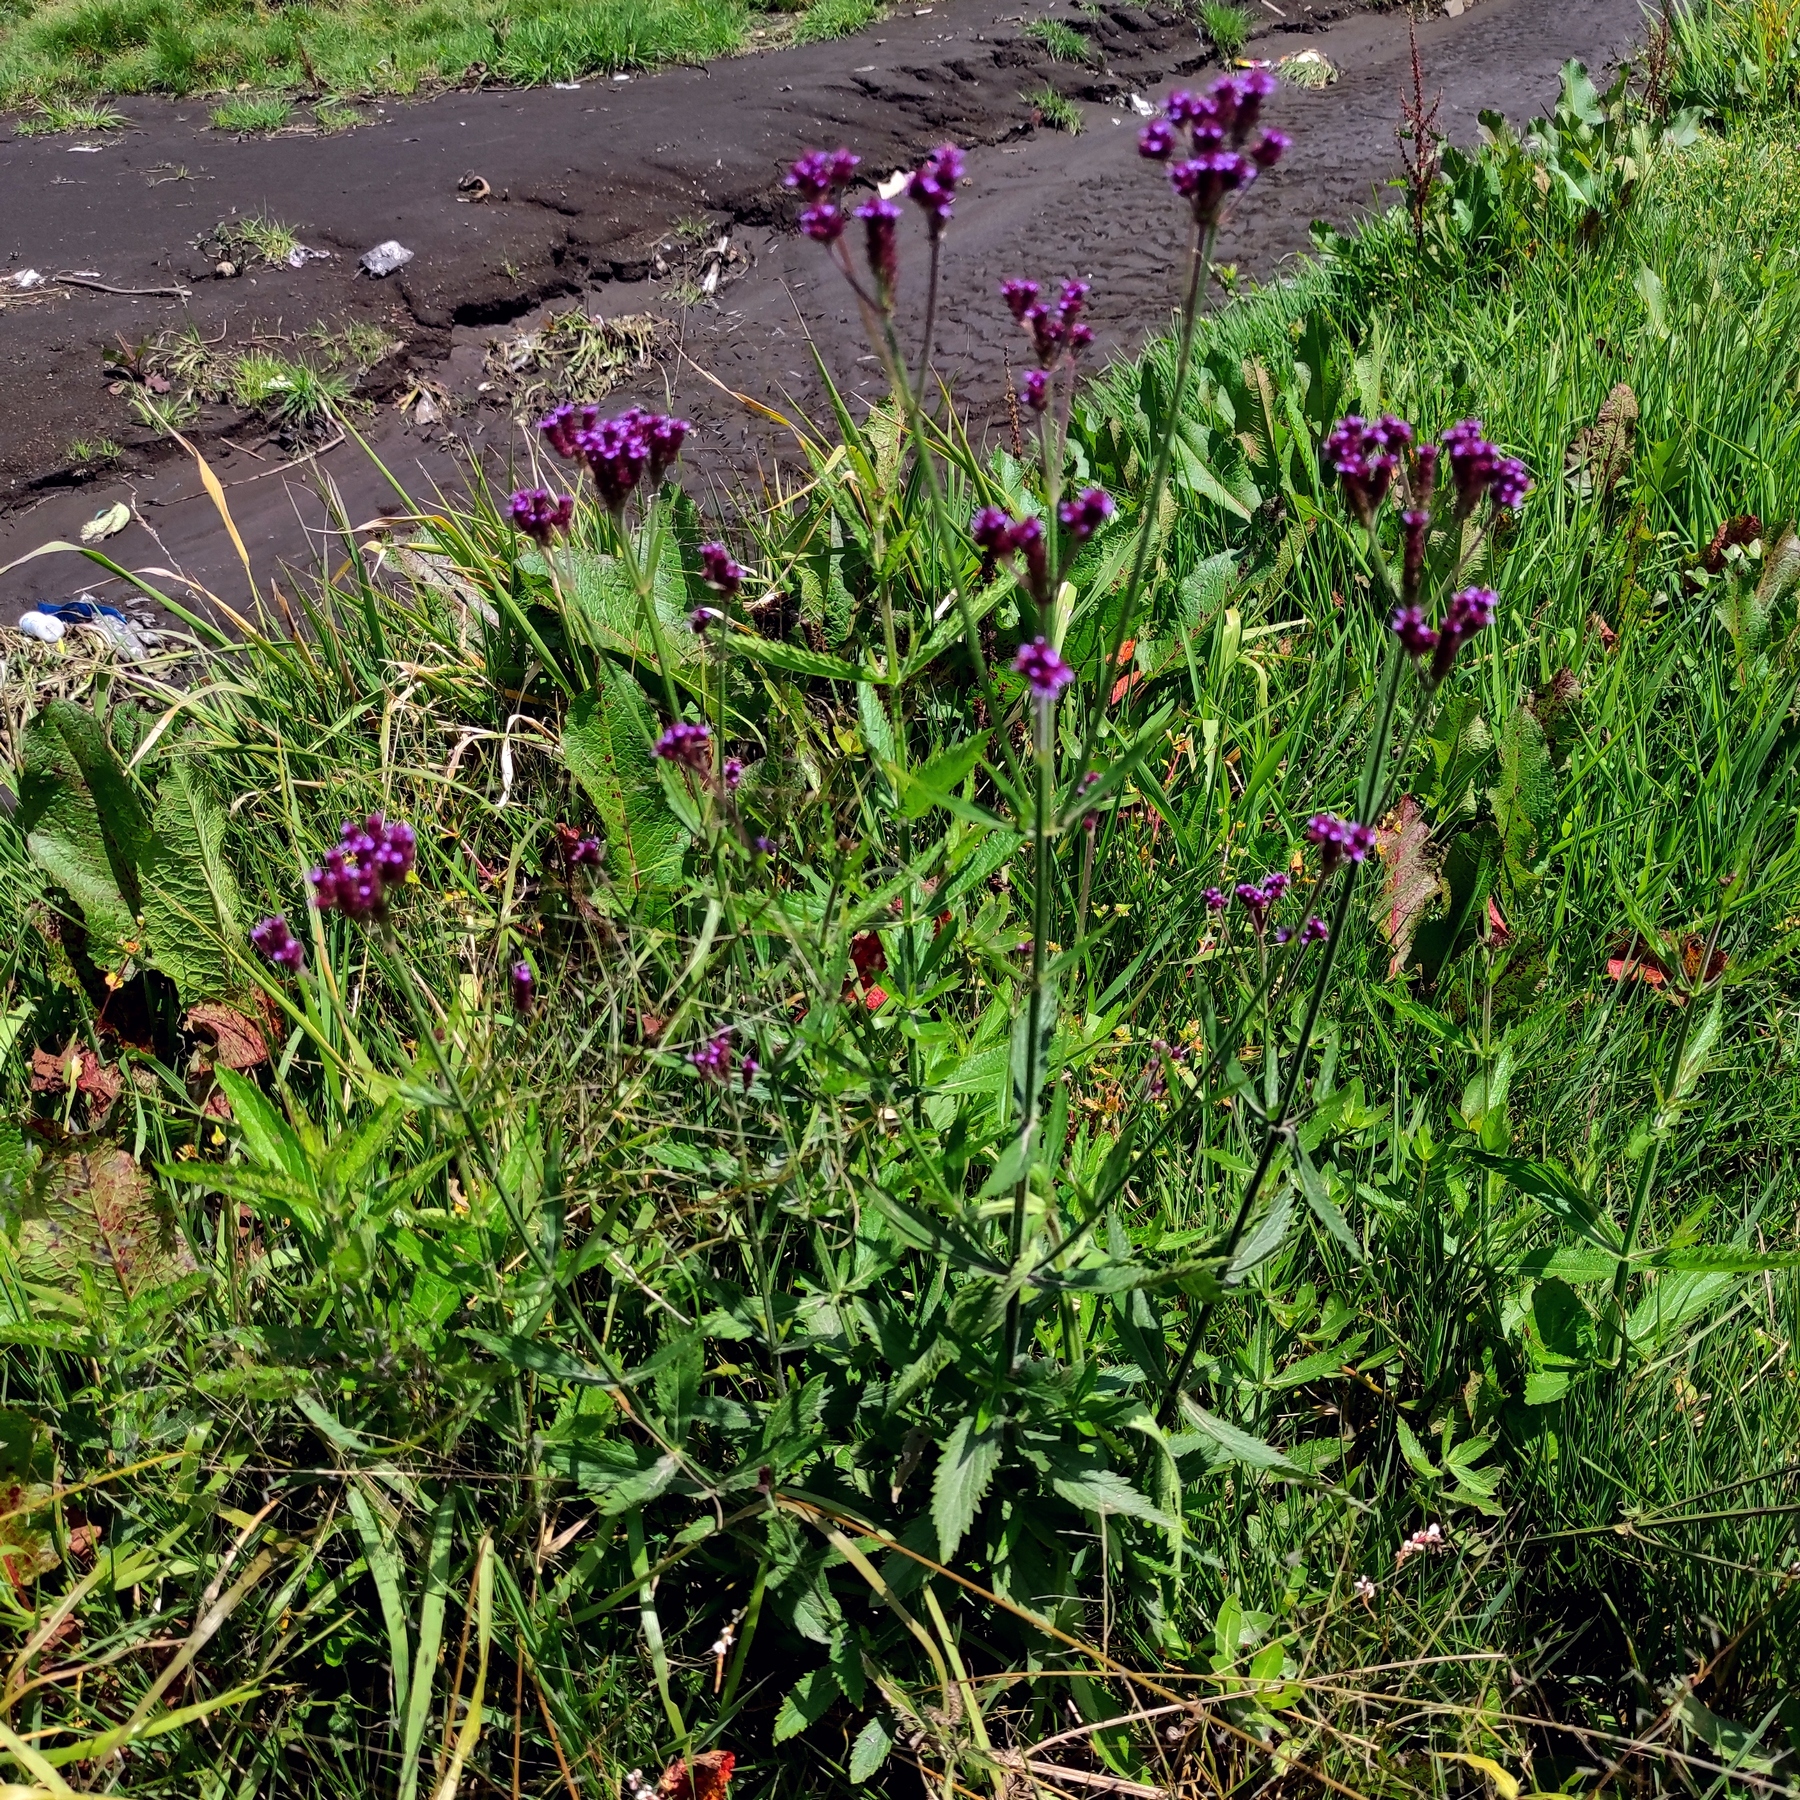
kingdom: Plantae
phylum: Tracheophyta
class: Magnoliopsida
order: Lamiales
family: Verbenaceae
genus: Verbena
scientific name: Verbena brasiliensis
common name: Brazilian vervain
